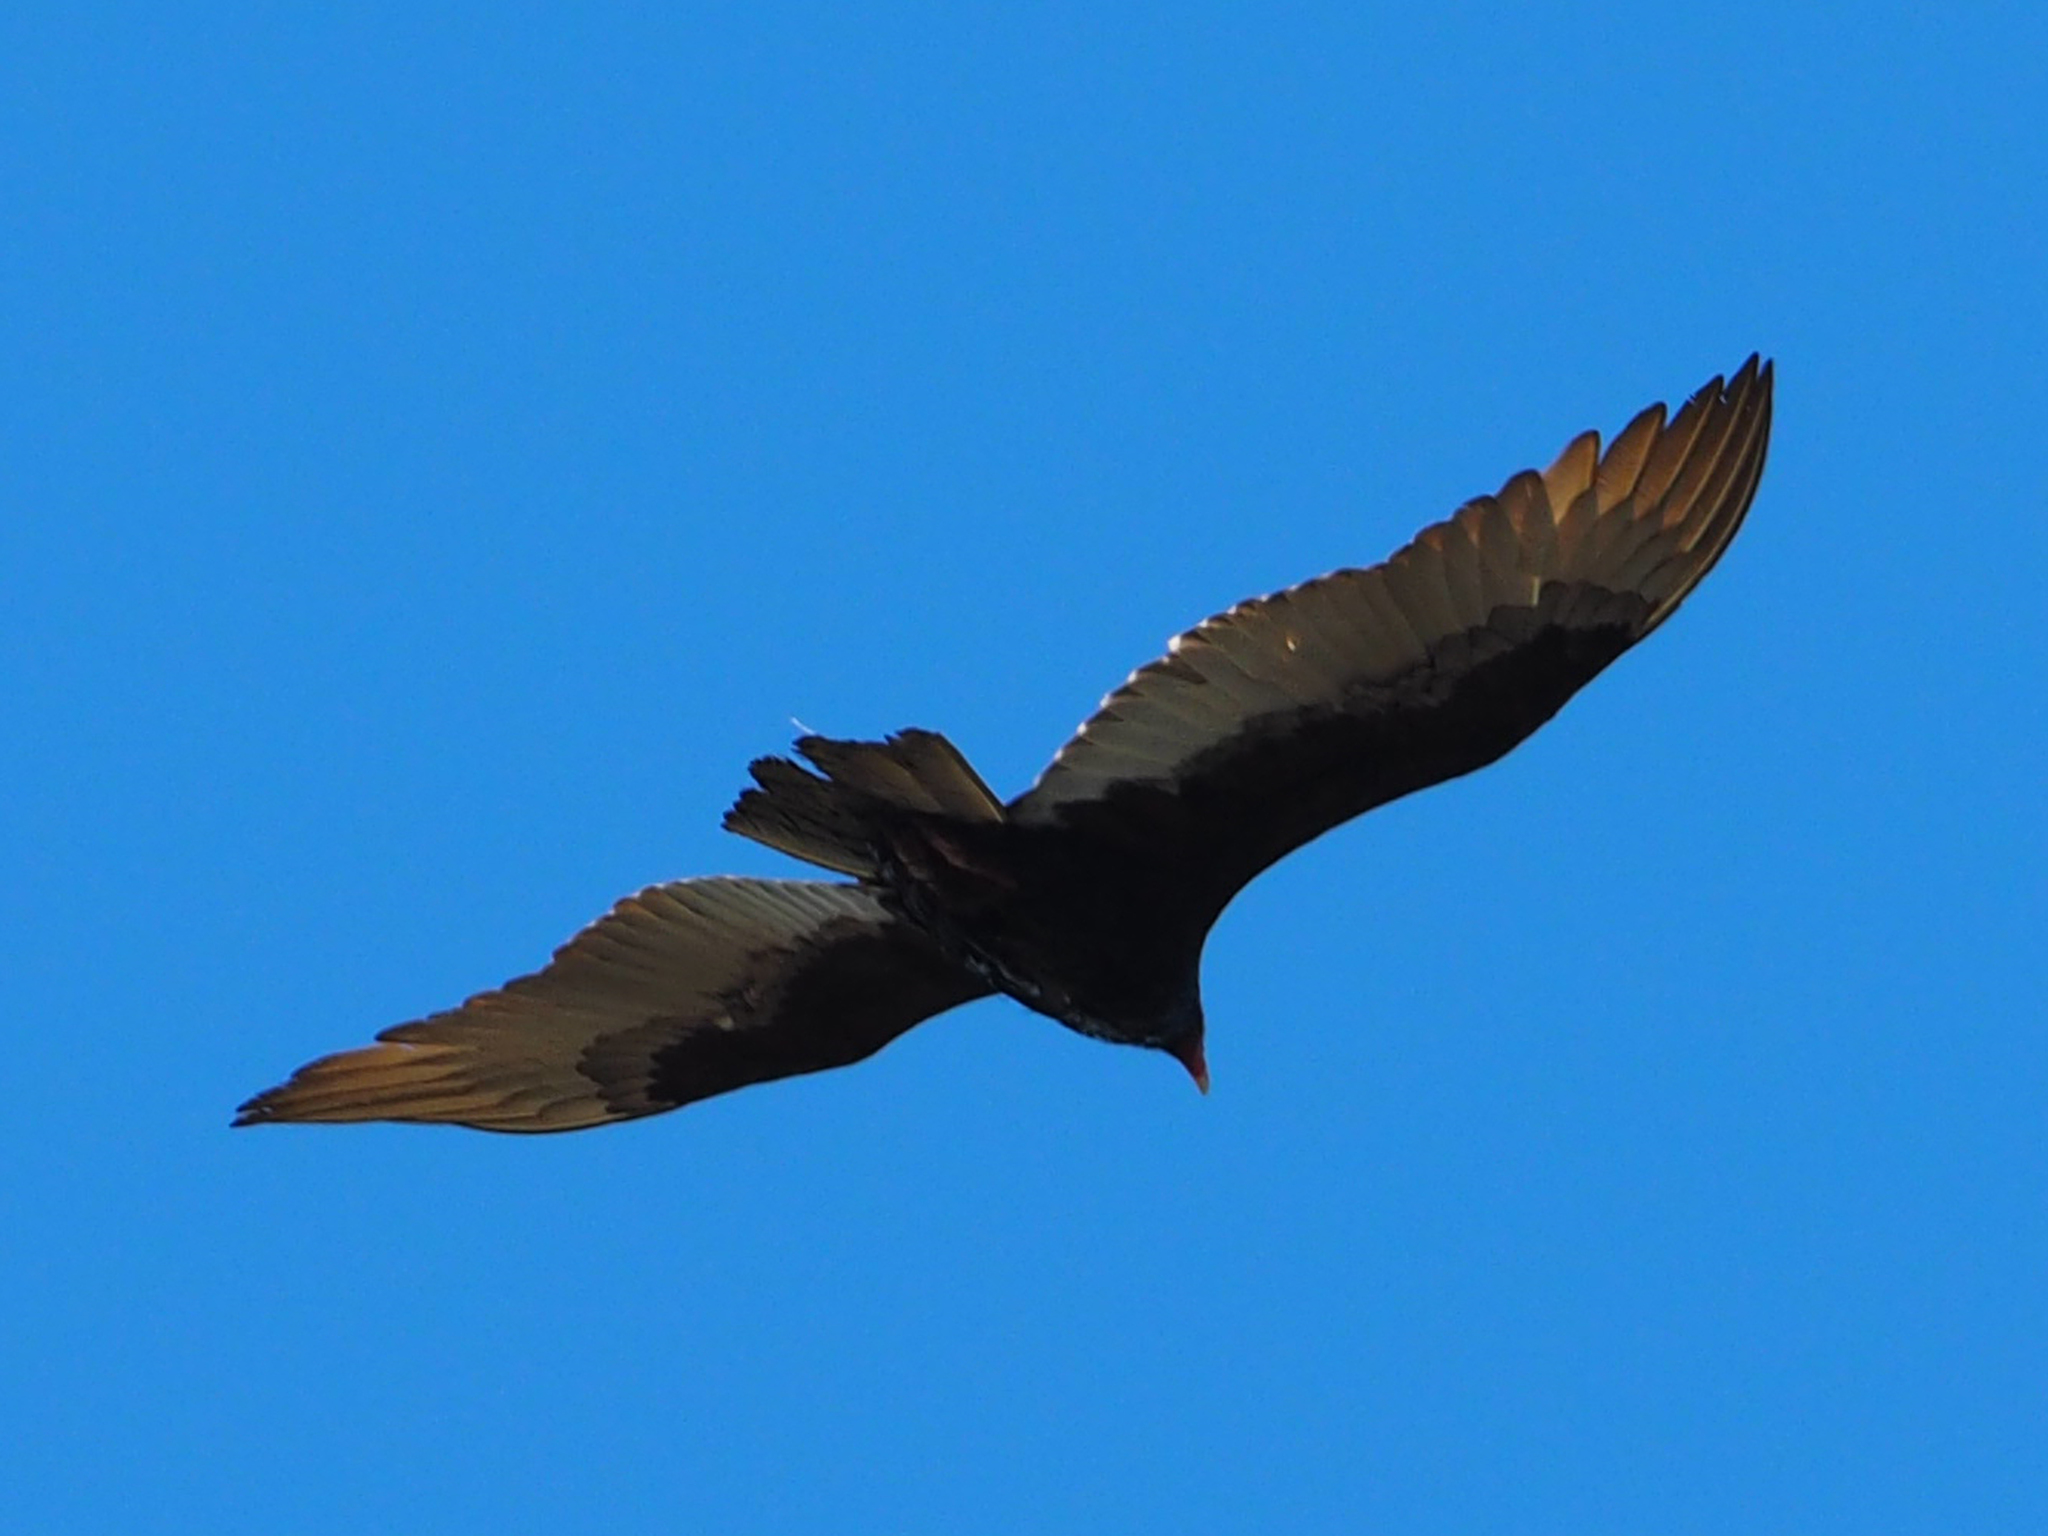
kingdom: Animalia
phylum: Chordata
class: Aves
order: Accipitriformes
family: Cathartidae
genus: Cathartes
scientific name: Cathartes aura
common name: Turkey vulture
